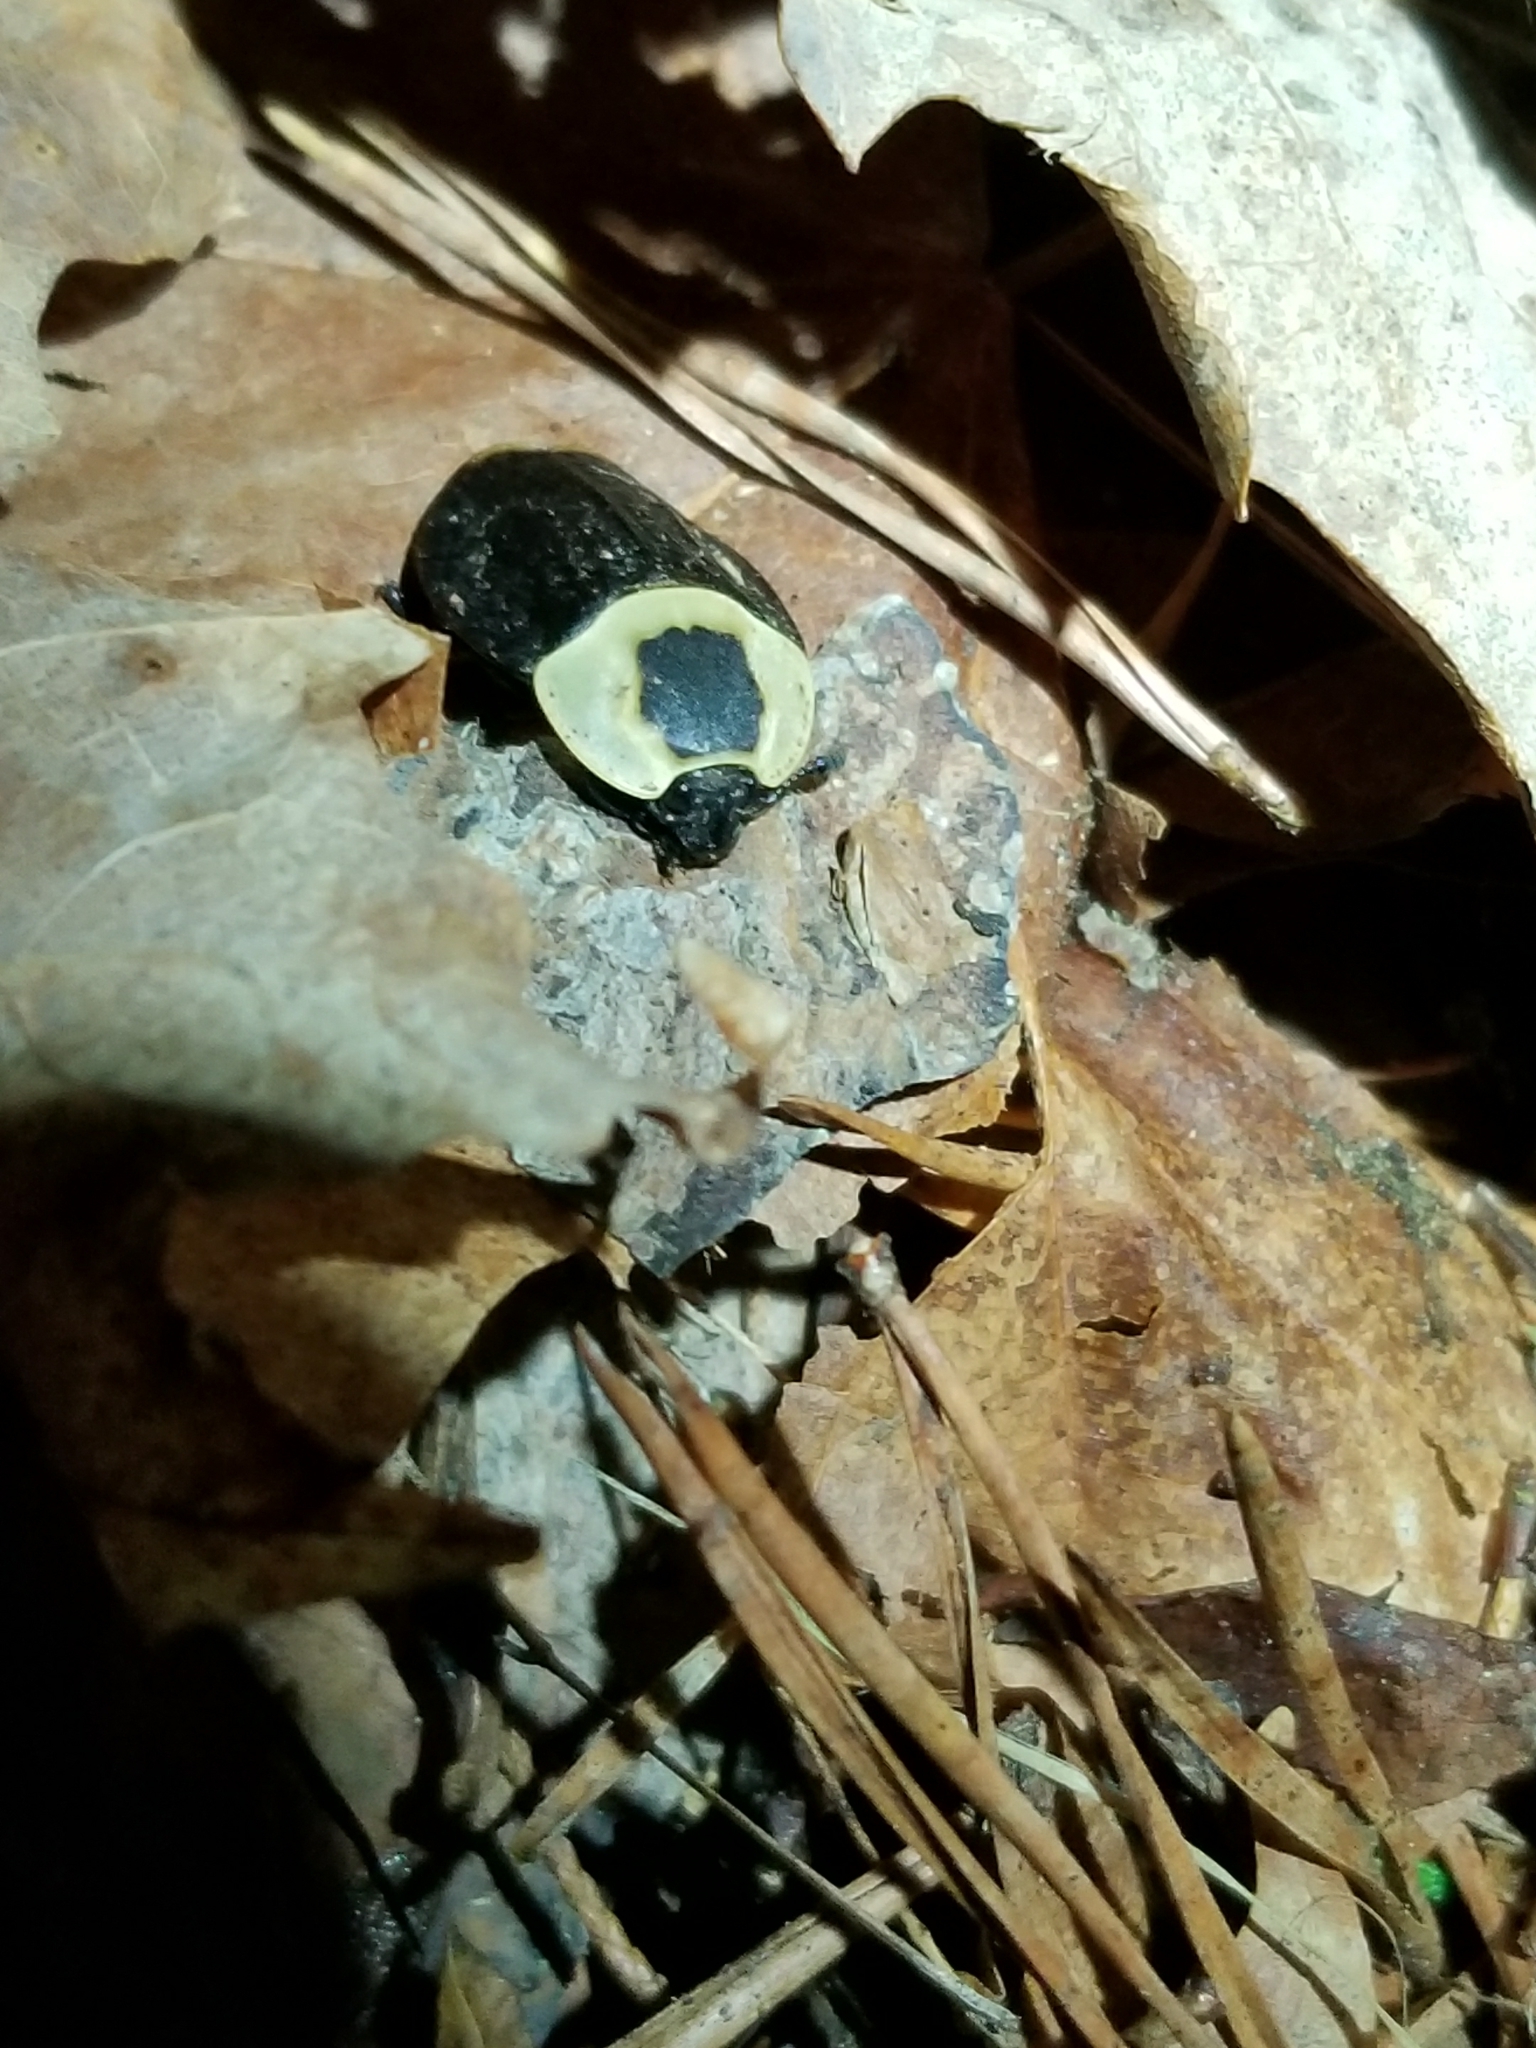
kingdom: Animalia
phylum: Arthropoda
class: Insecta
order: Coleoptera
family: Staphylinidae
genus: Necrophila
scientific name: Necrophila americana
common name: American carrion beetle
